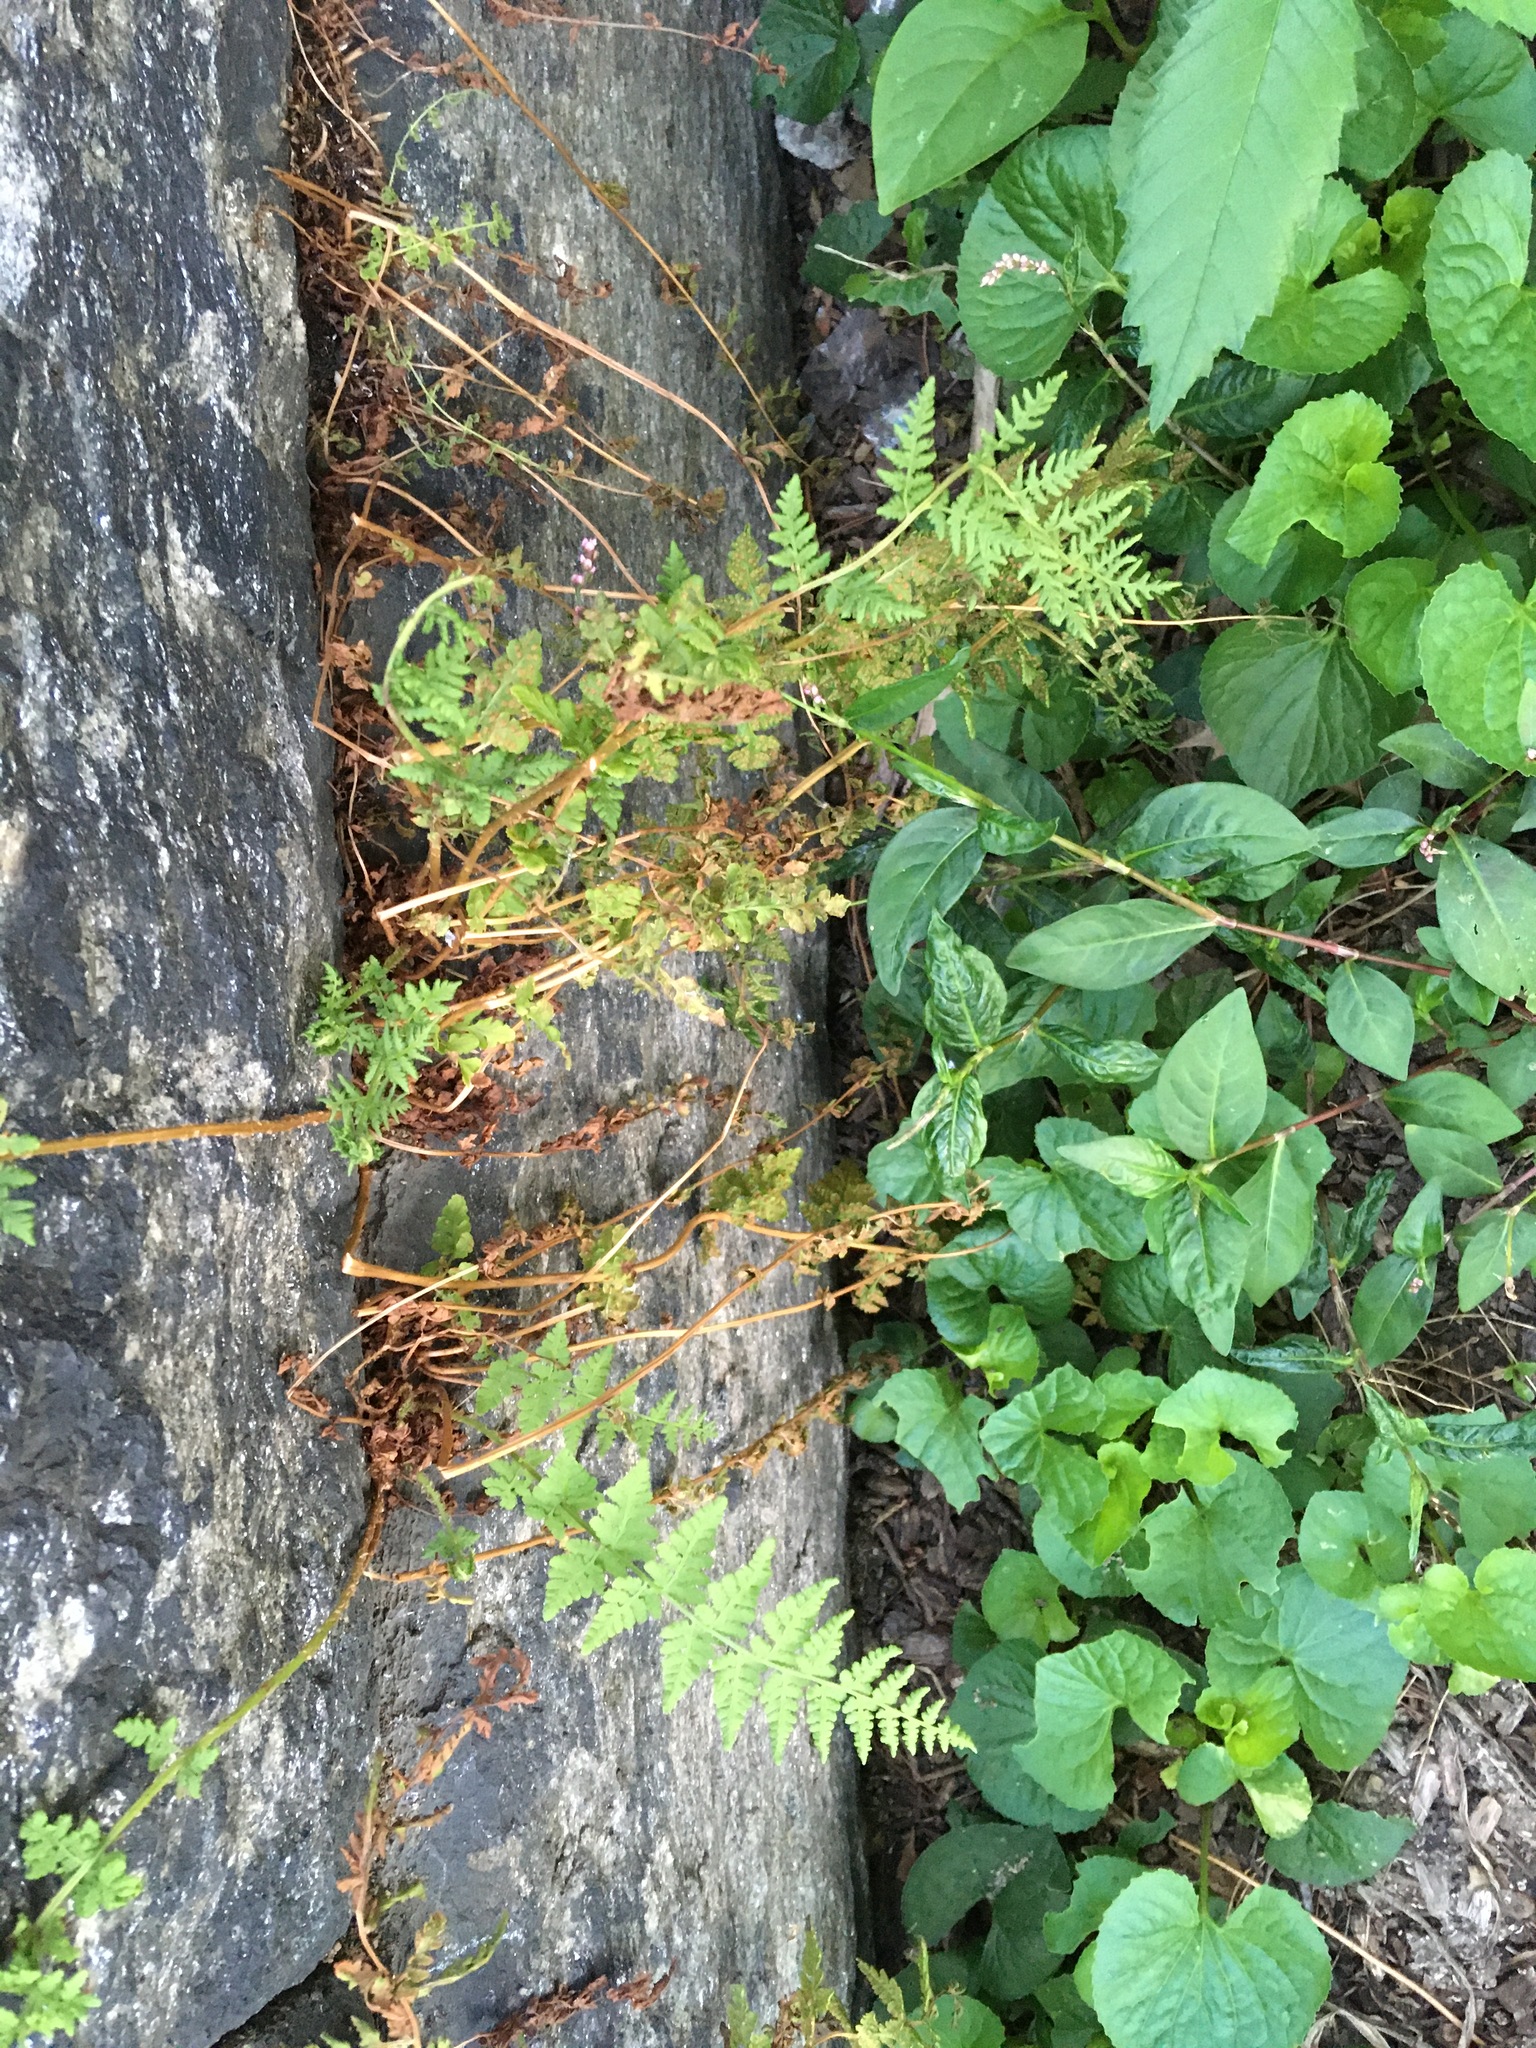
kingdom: Plantae
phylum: Tracheophyta
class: Polypodiopsida
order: Polypodiales
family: Woodsiaceae
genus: Physematium
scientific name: Physematium obtusum
